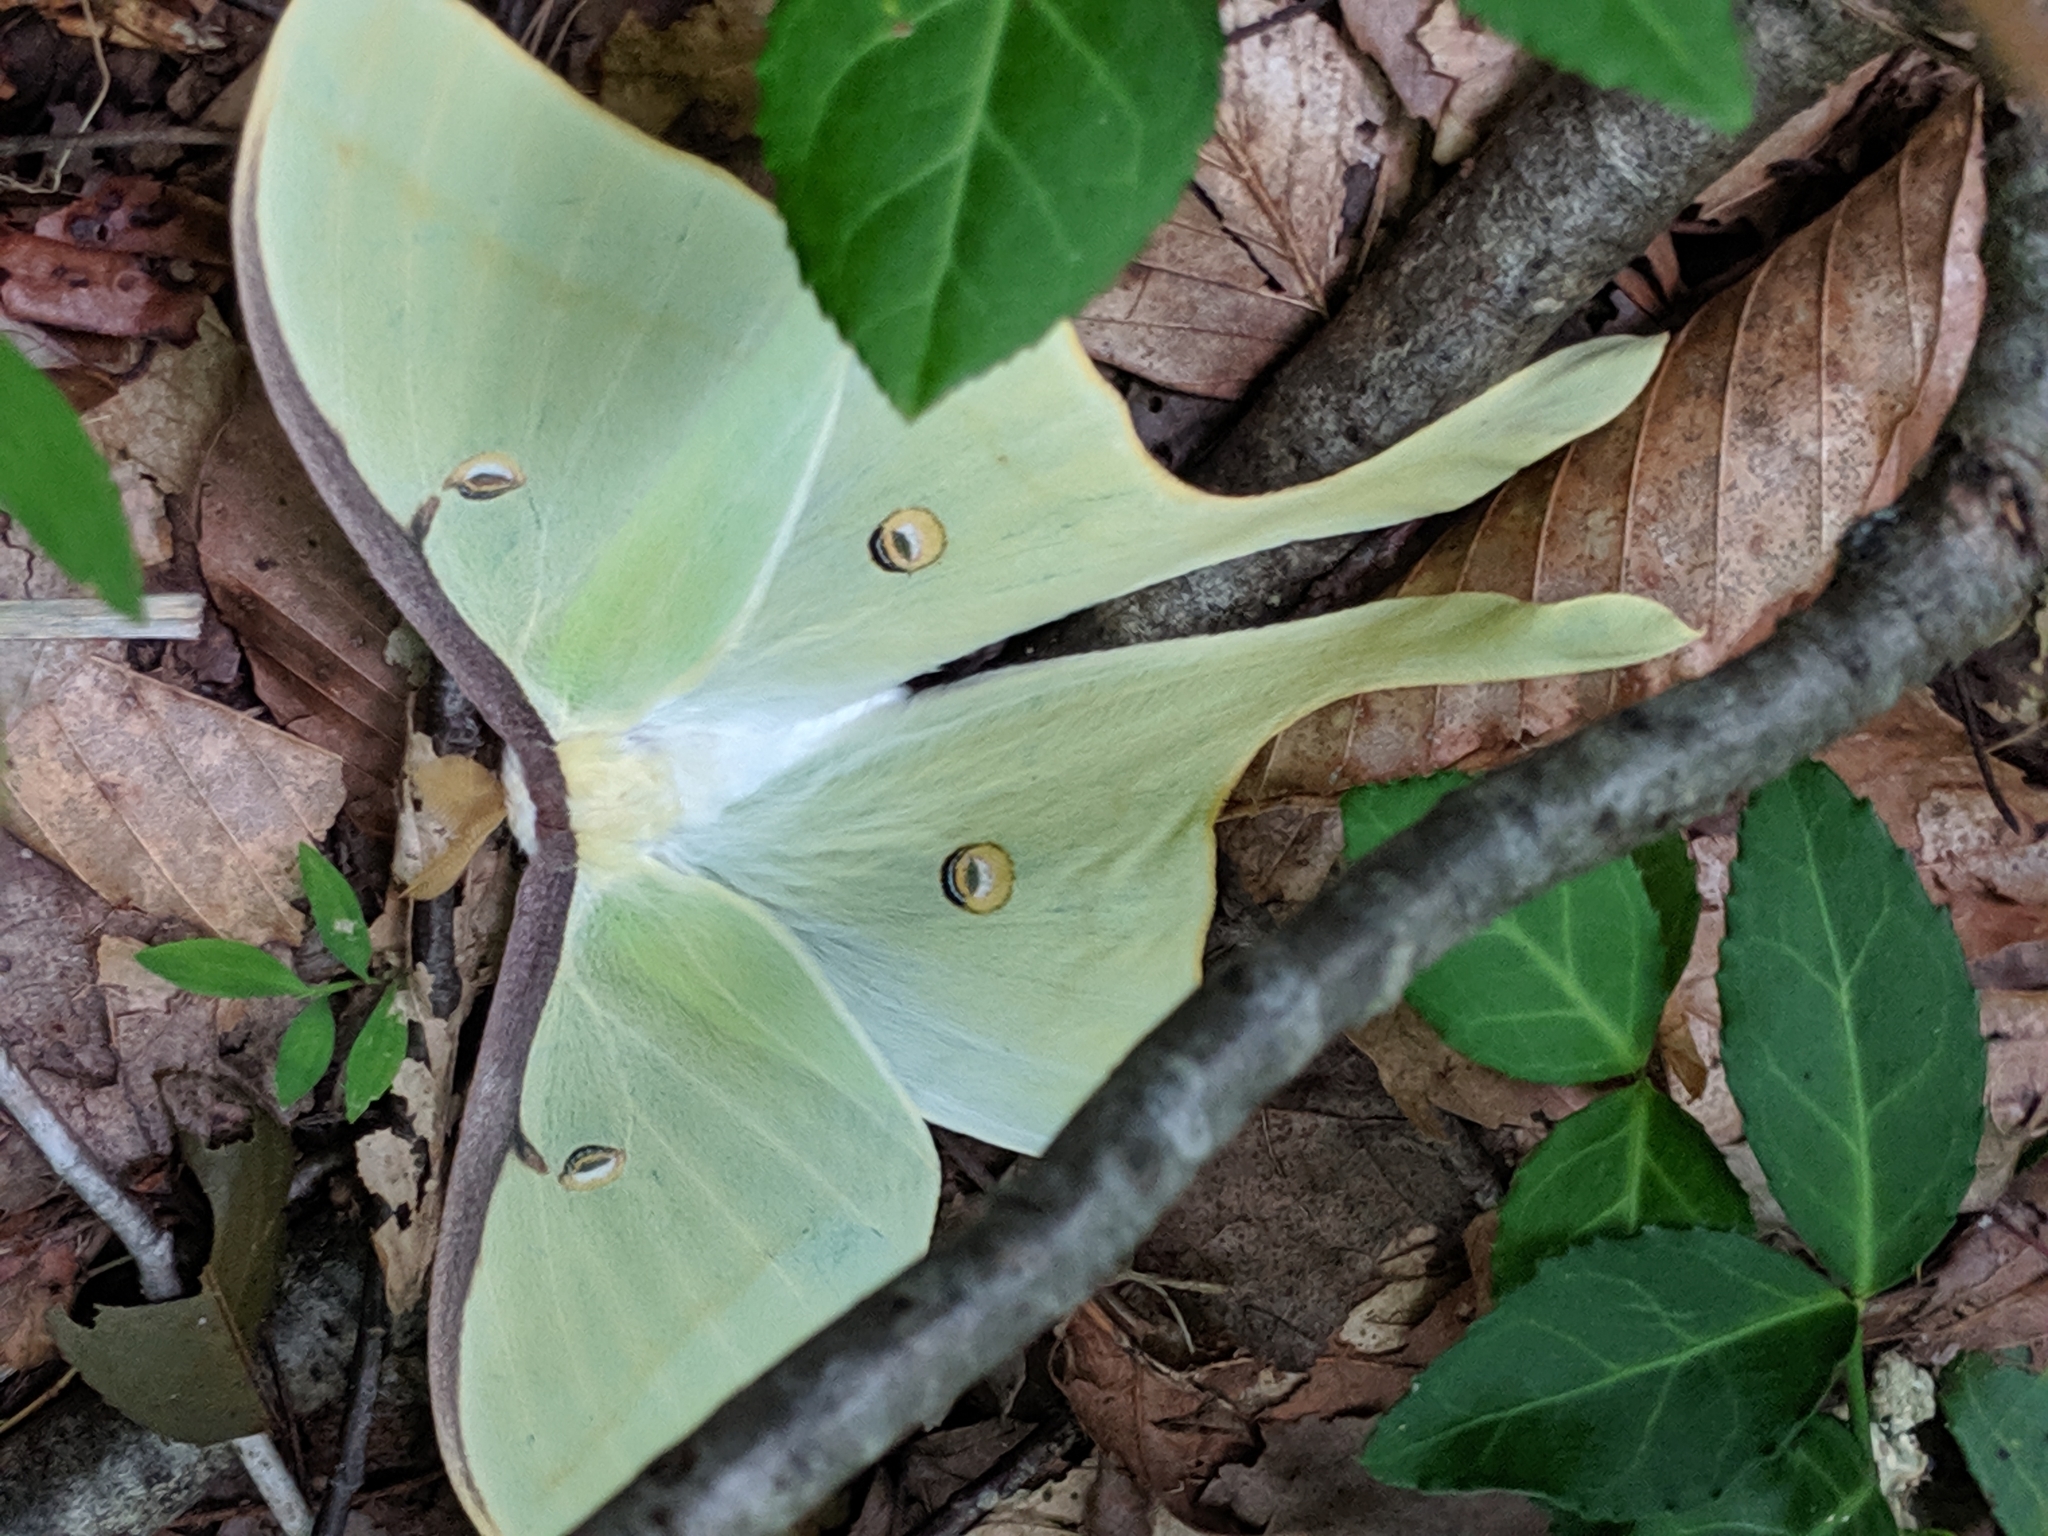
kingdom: Animalia
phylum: Arthropoda
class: Insecta
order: Lepidoptera
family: Saturniidae
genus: Actias
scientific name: Actias luna
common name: Luna moth
